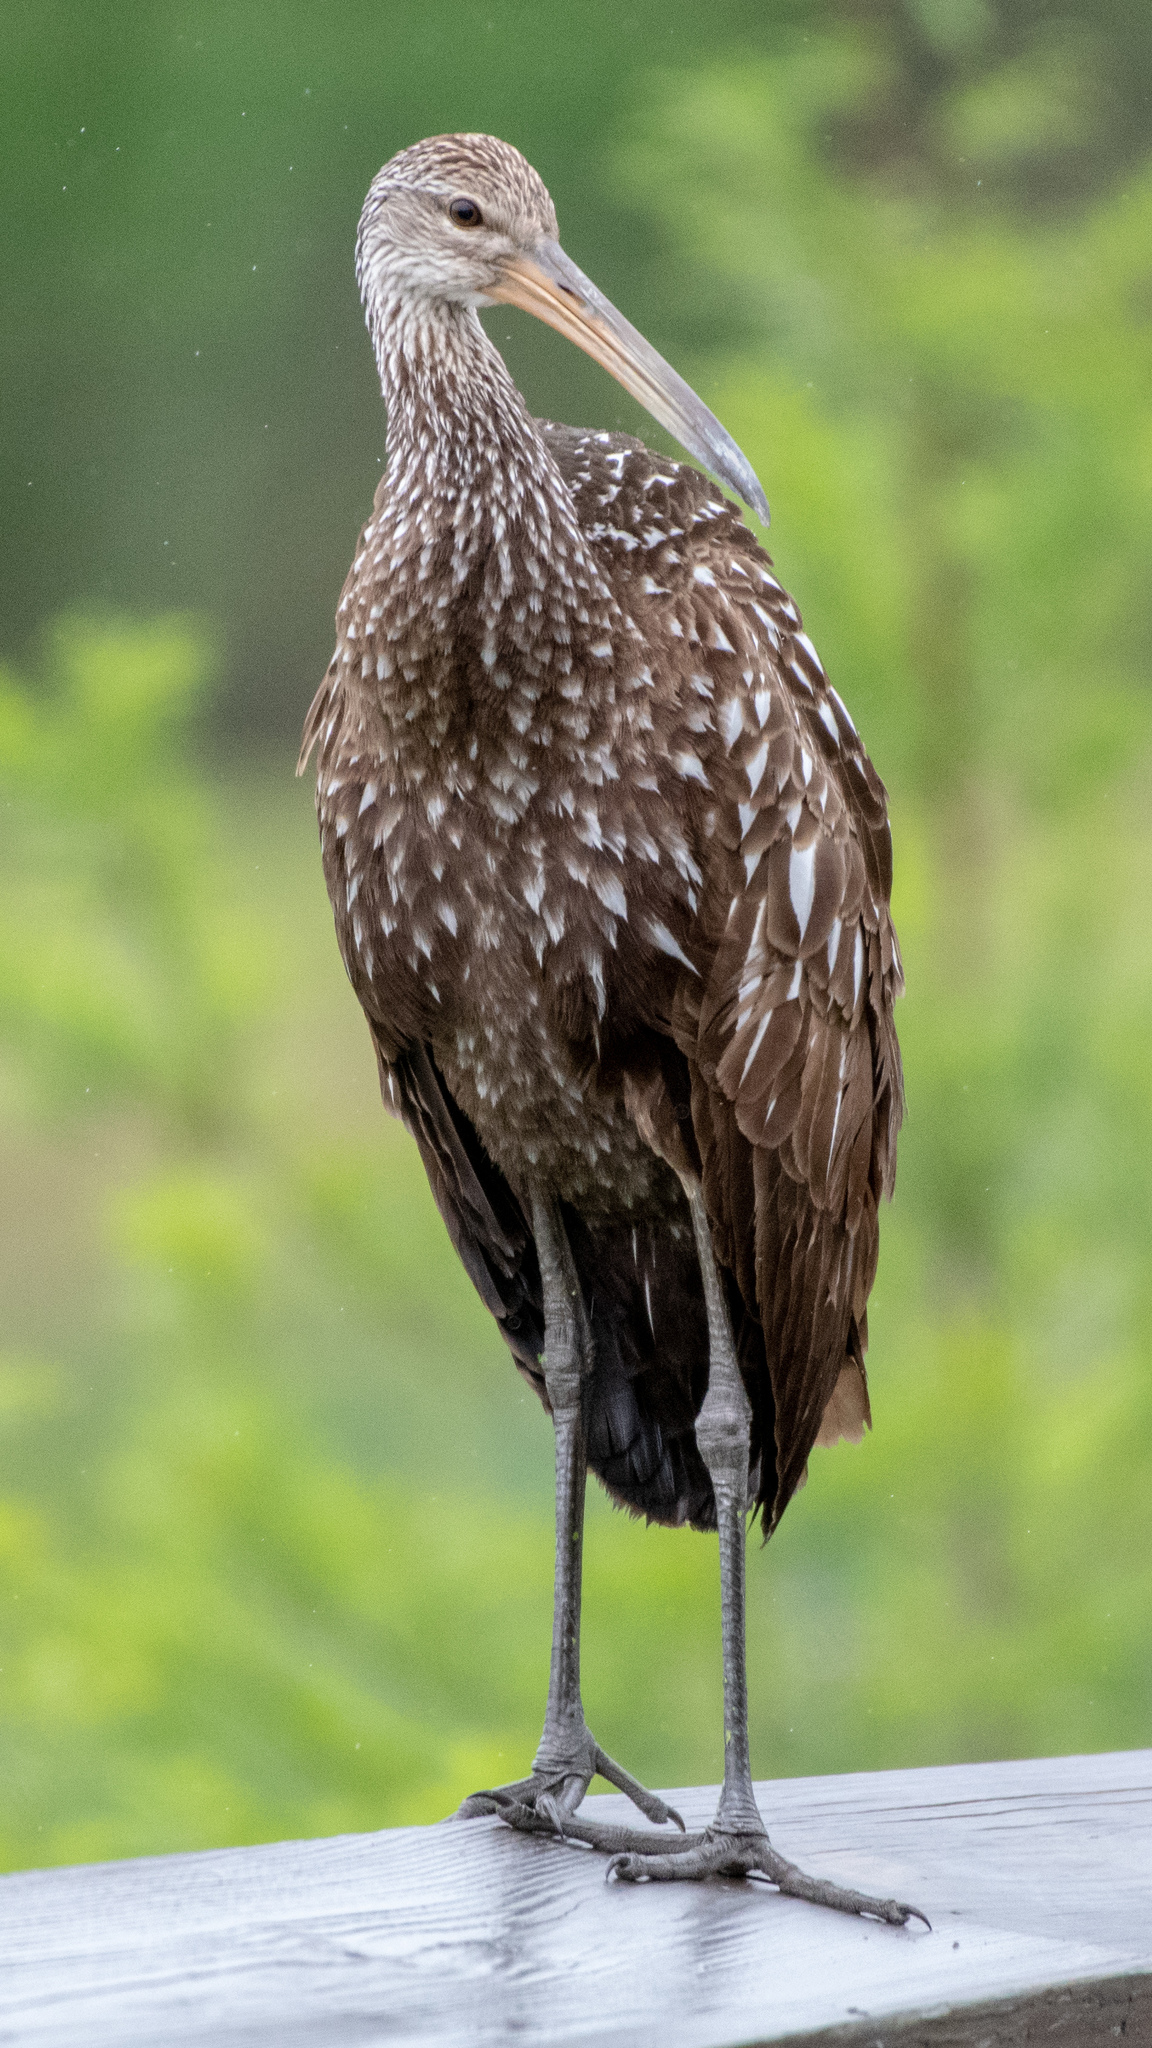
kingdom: Animalia
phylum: Chordata
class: Aves
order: Gruiformes
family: Aramidae
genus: Aramus
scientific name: Aramus guarauna
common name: Limpkin
